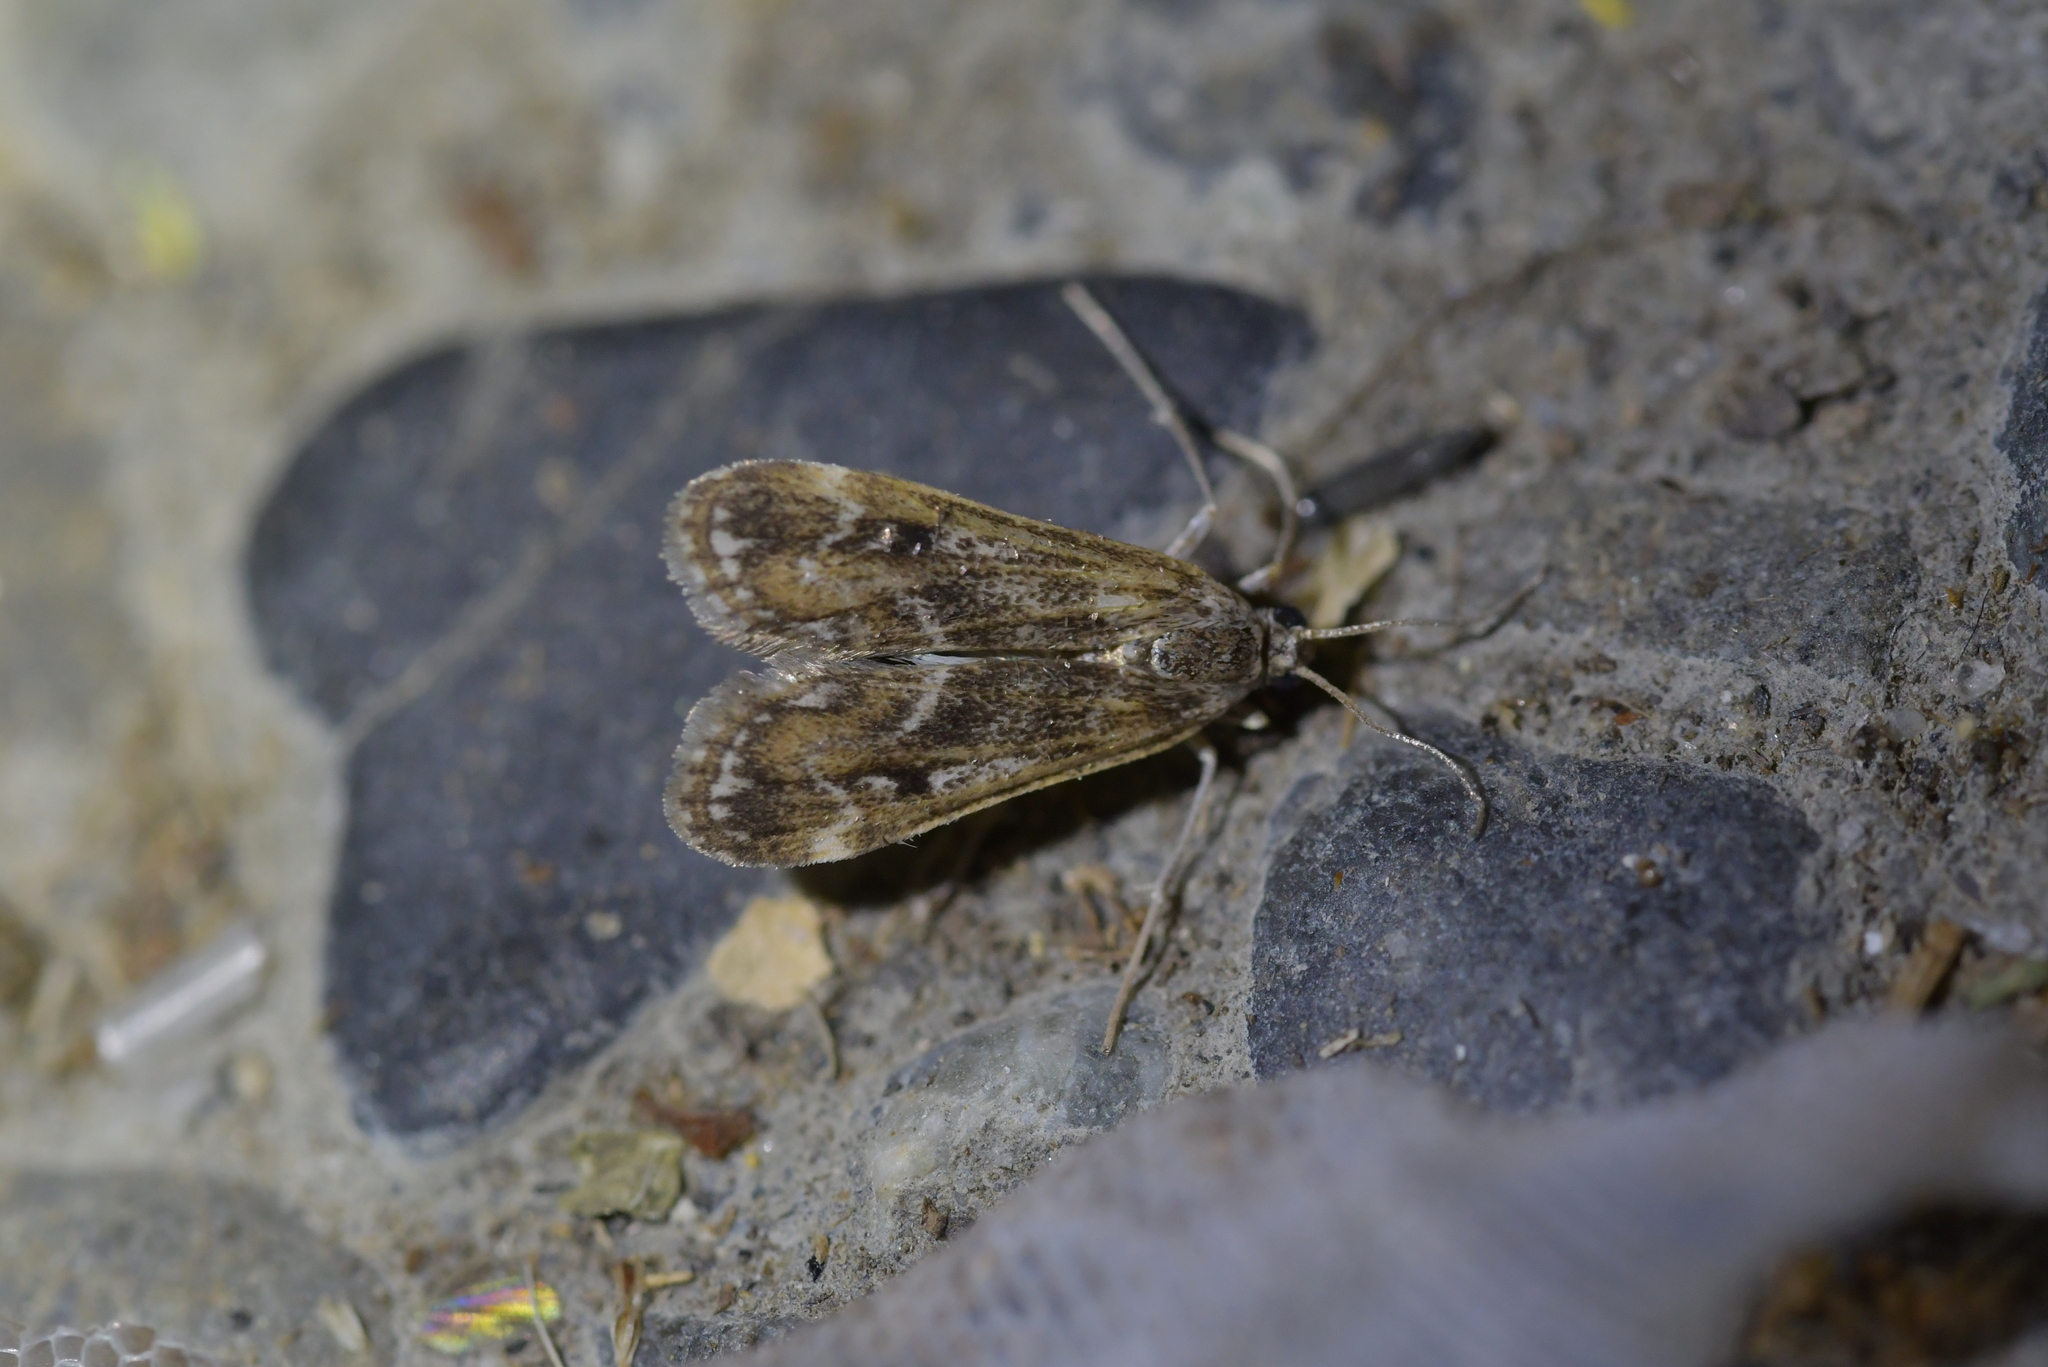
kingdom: Animalia
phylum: Arthropoda
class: Insecta
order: Lepidoptera
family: Crambidae
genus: Hygraula
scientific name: Hygraula nitens
